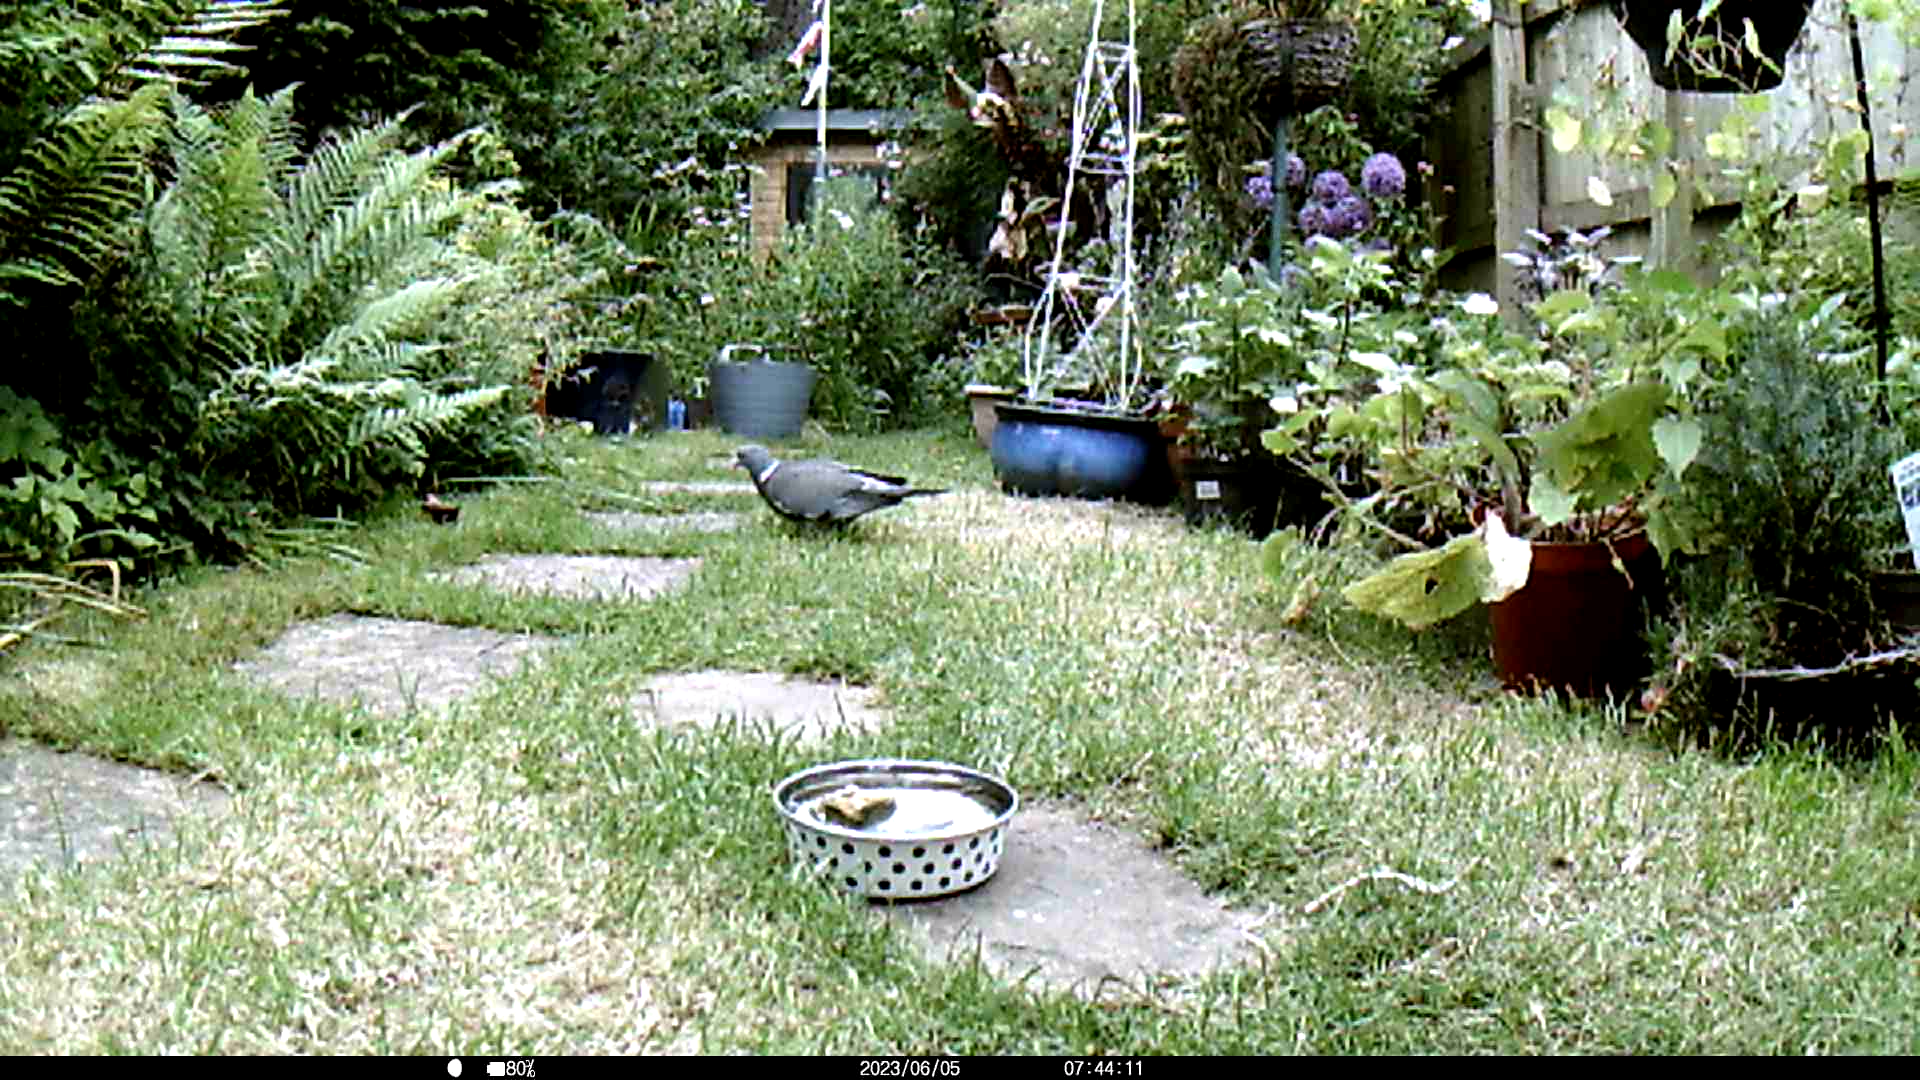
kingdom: Animalia
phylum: Chordata
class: Aves
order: Columbiformes
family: Columbidae
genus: Columba
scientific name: Columba palumbus
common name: Common wood pigeon
